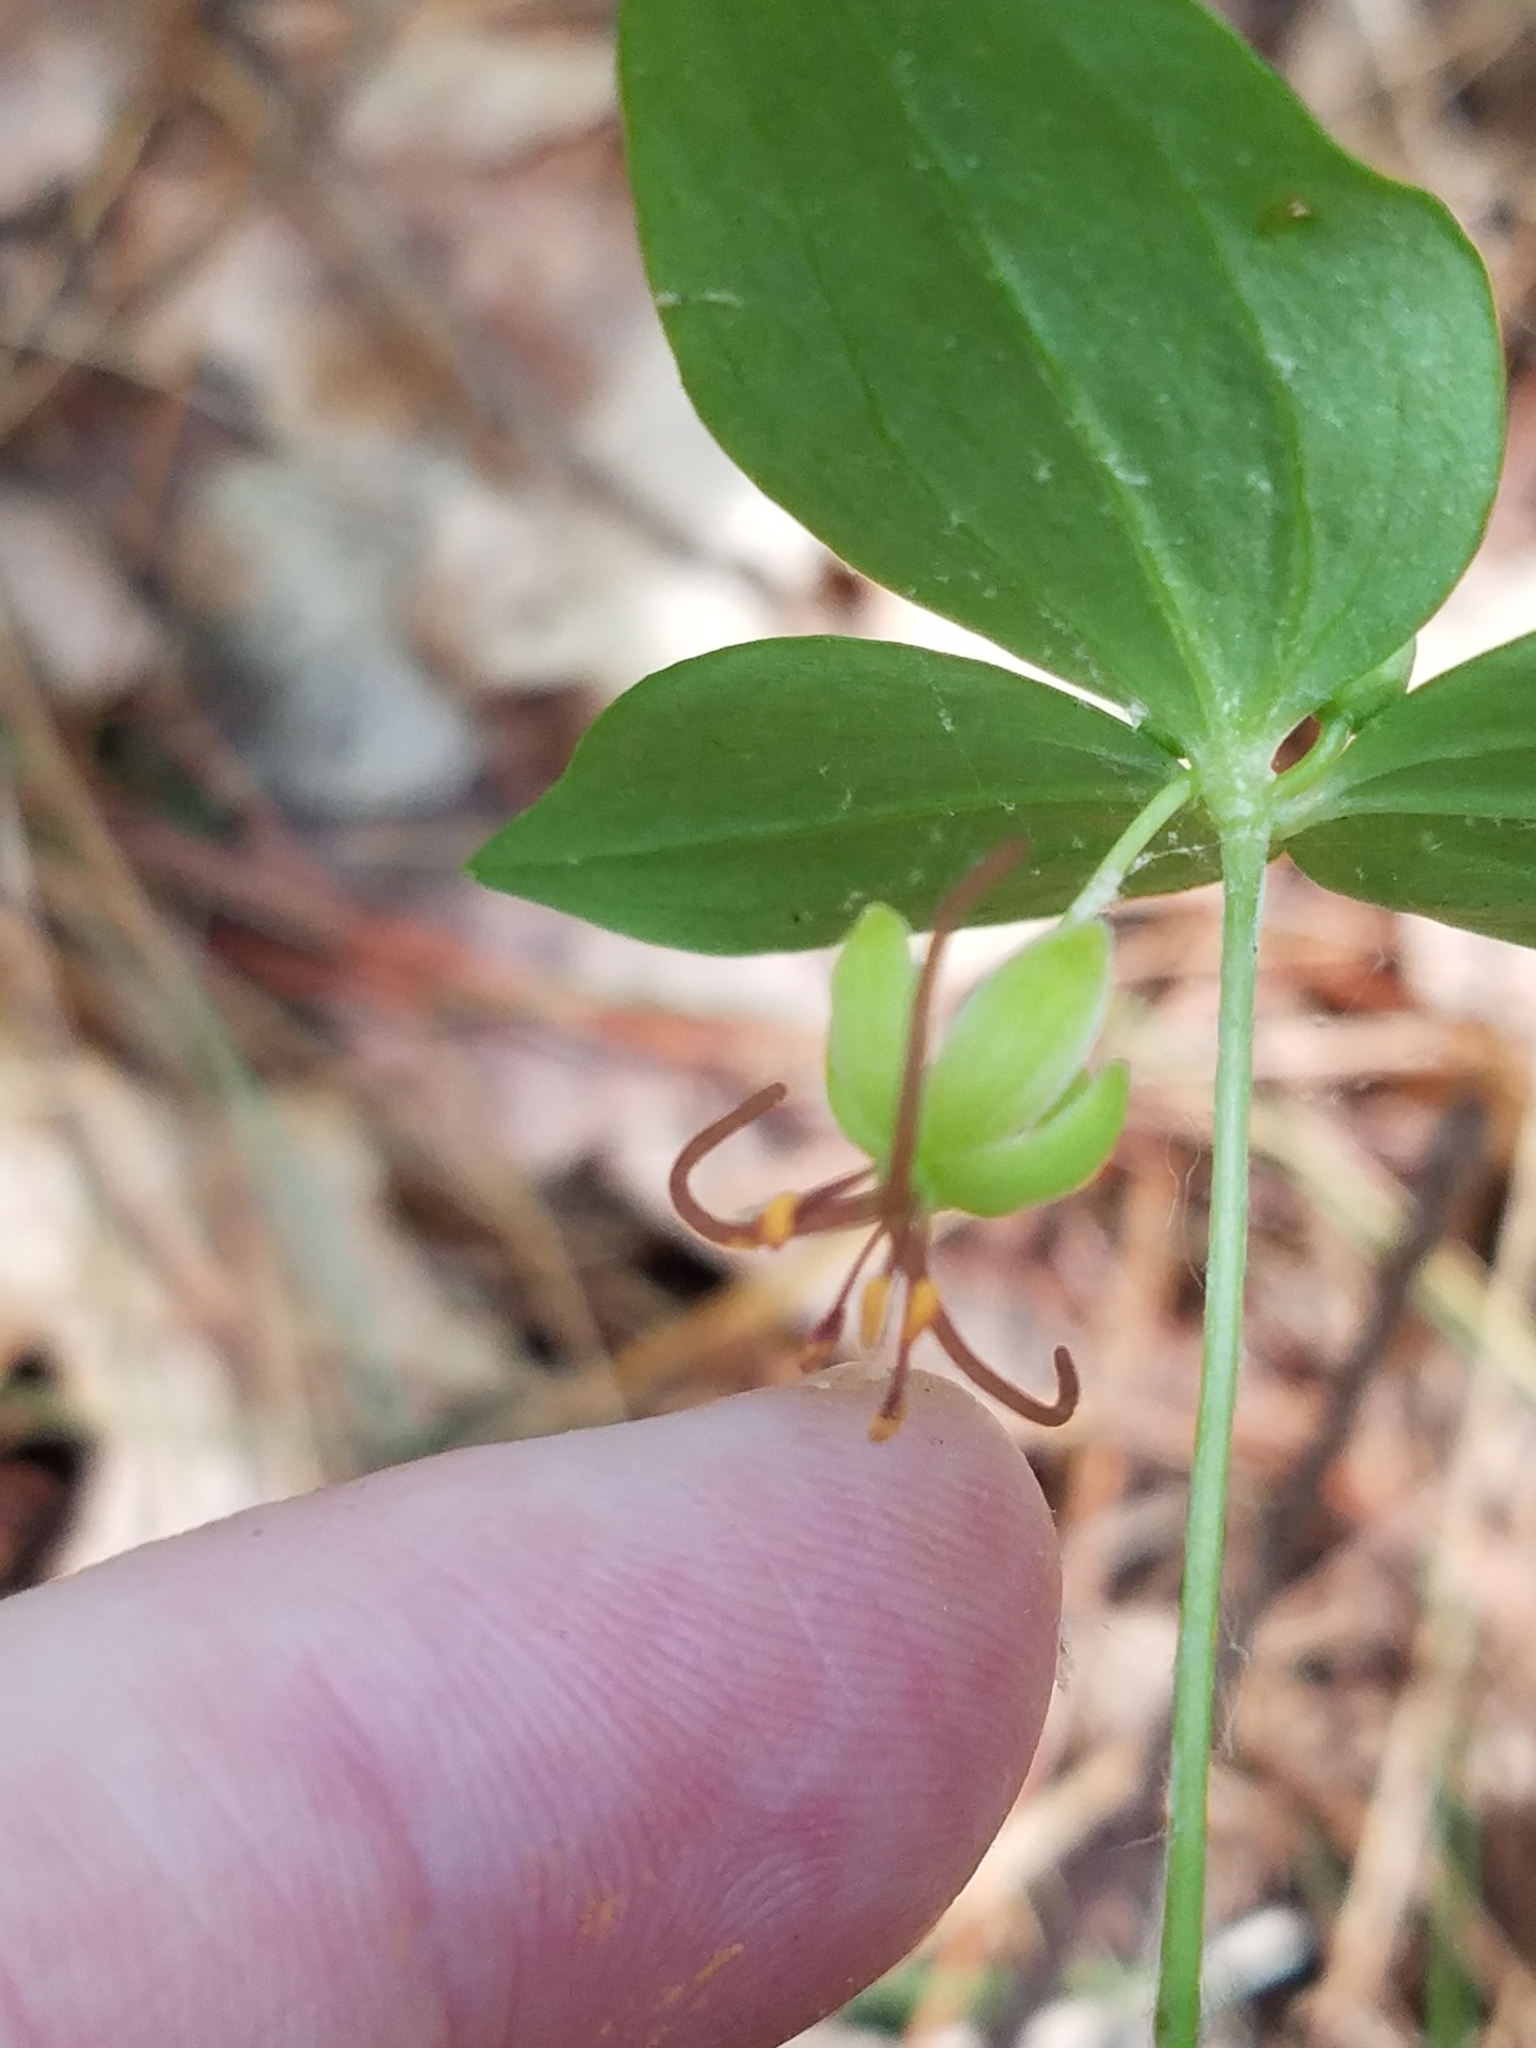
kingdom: Plantae
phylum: Tracheophyta
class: Liliopsida
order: Liliales
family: Liliaceae
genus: Medeola
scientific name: Medeola virginiana
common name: Indian cucumber-root
